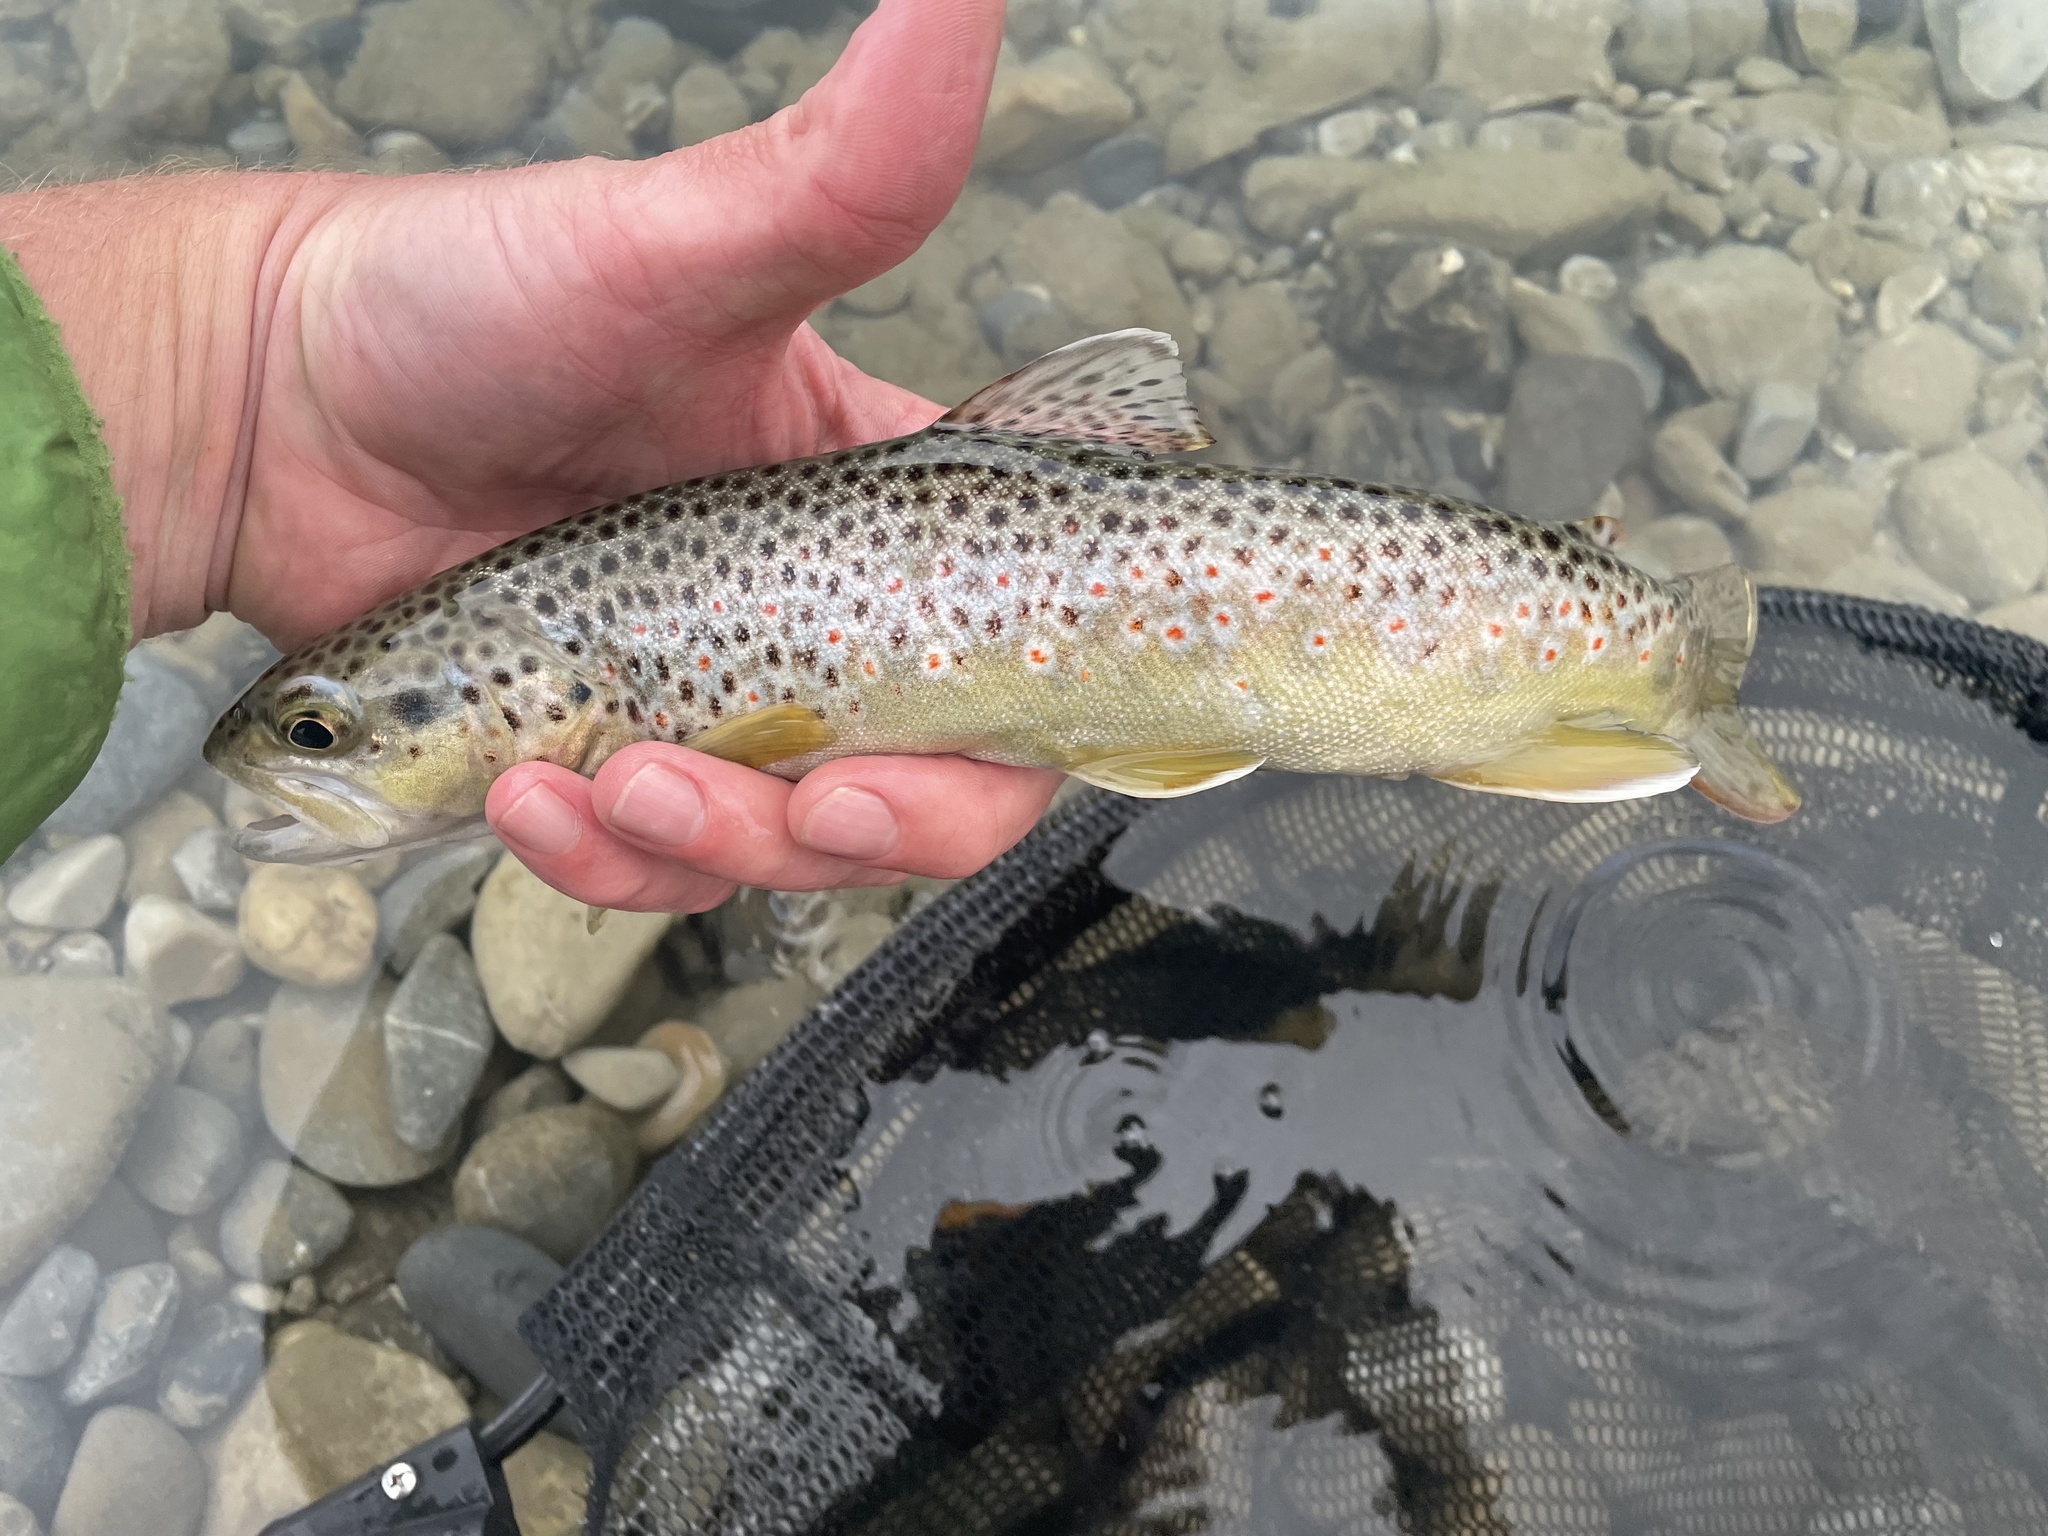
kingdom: Animalia
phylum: Chordata
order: Salmoniformes
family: Salmonidae
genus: Salmo
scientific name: Salmo trutta
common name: Brown trout
